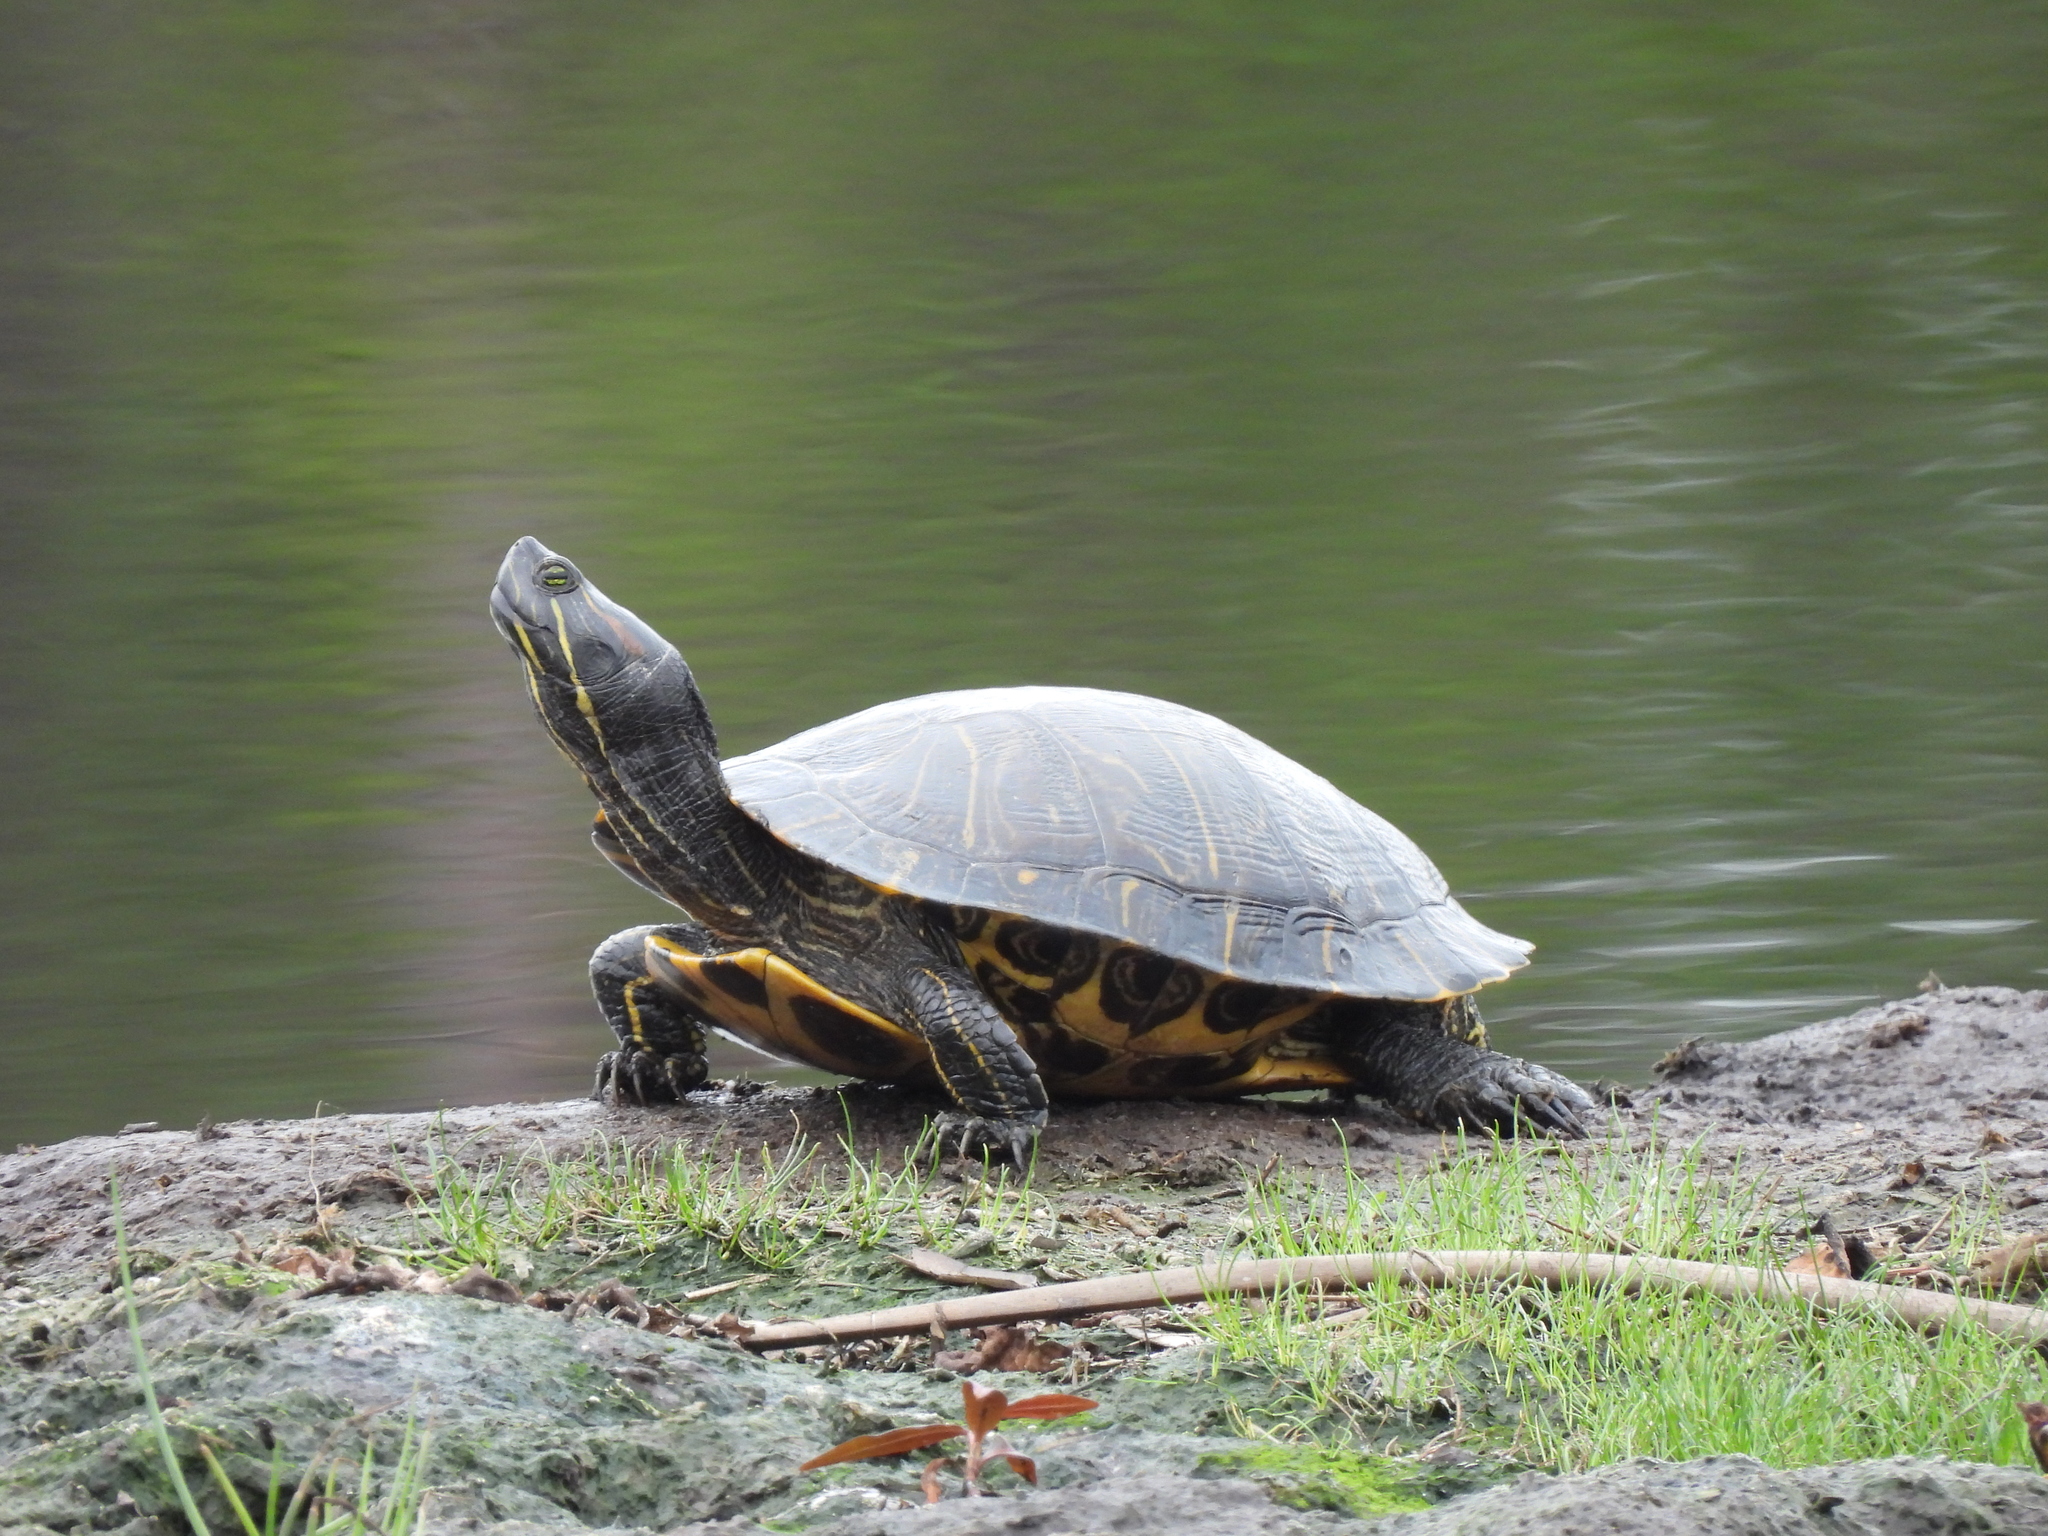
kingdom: Animalia
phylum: Chordata
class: Testudines
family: Emydidae
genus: Trachemys
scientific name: Trachemys scripta
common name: Slider
